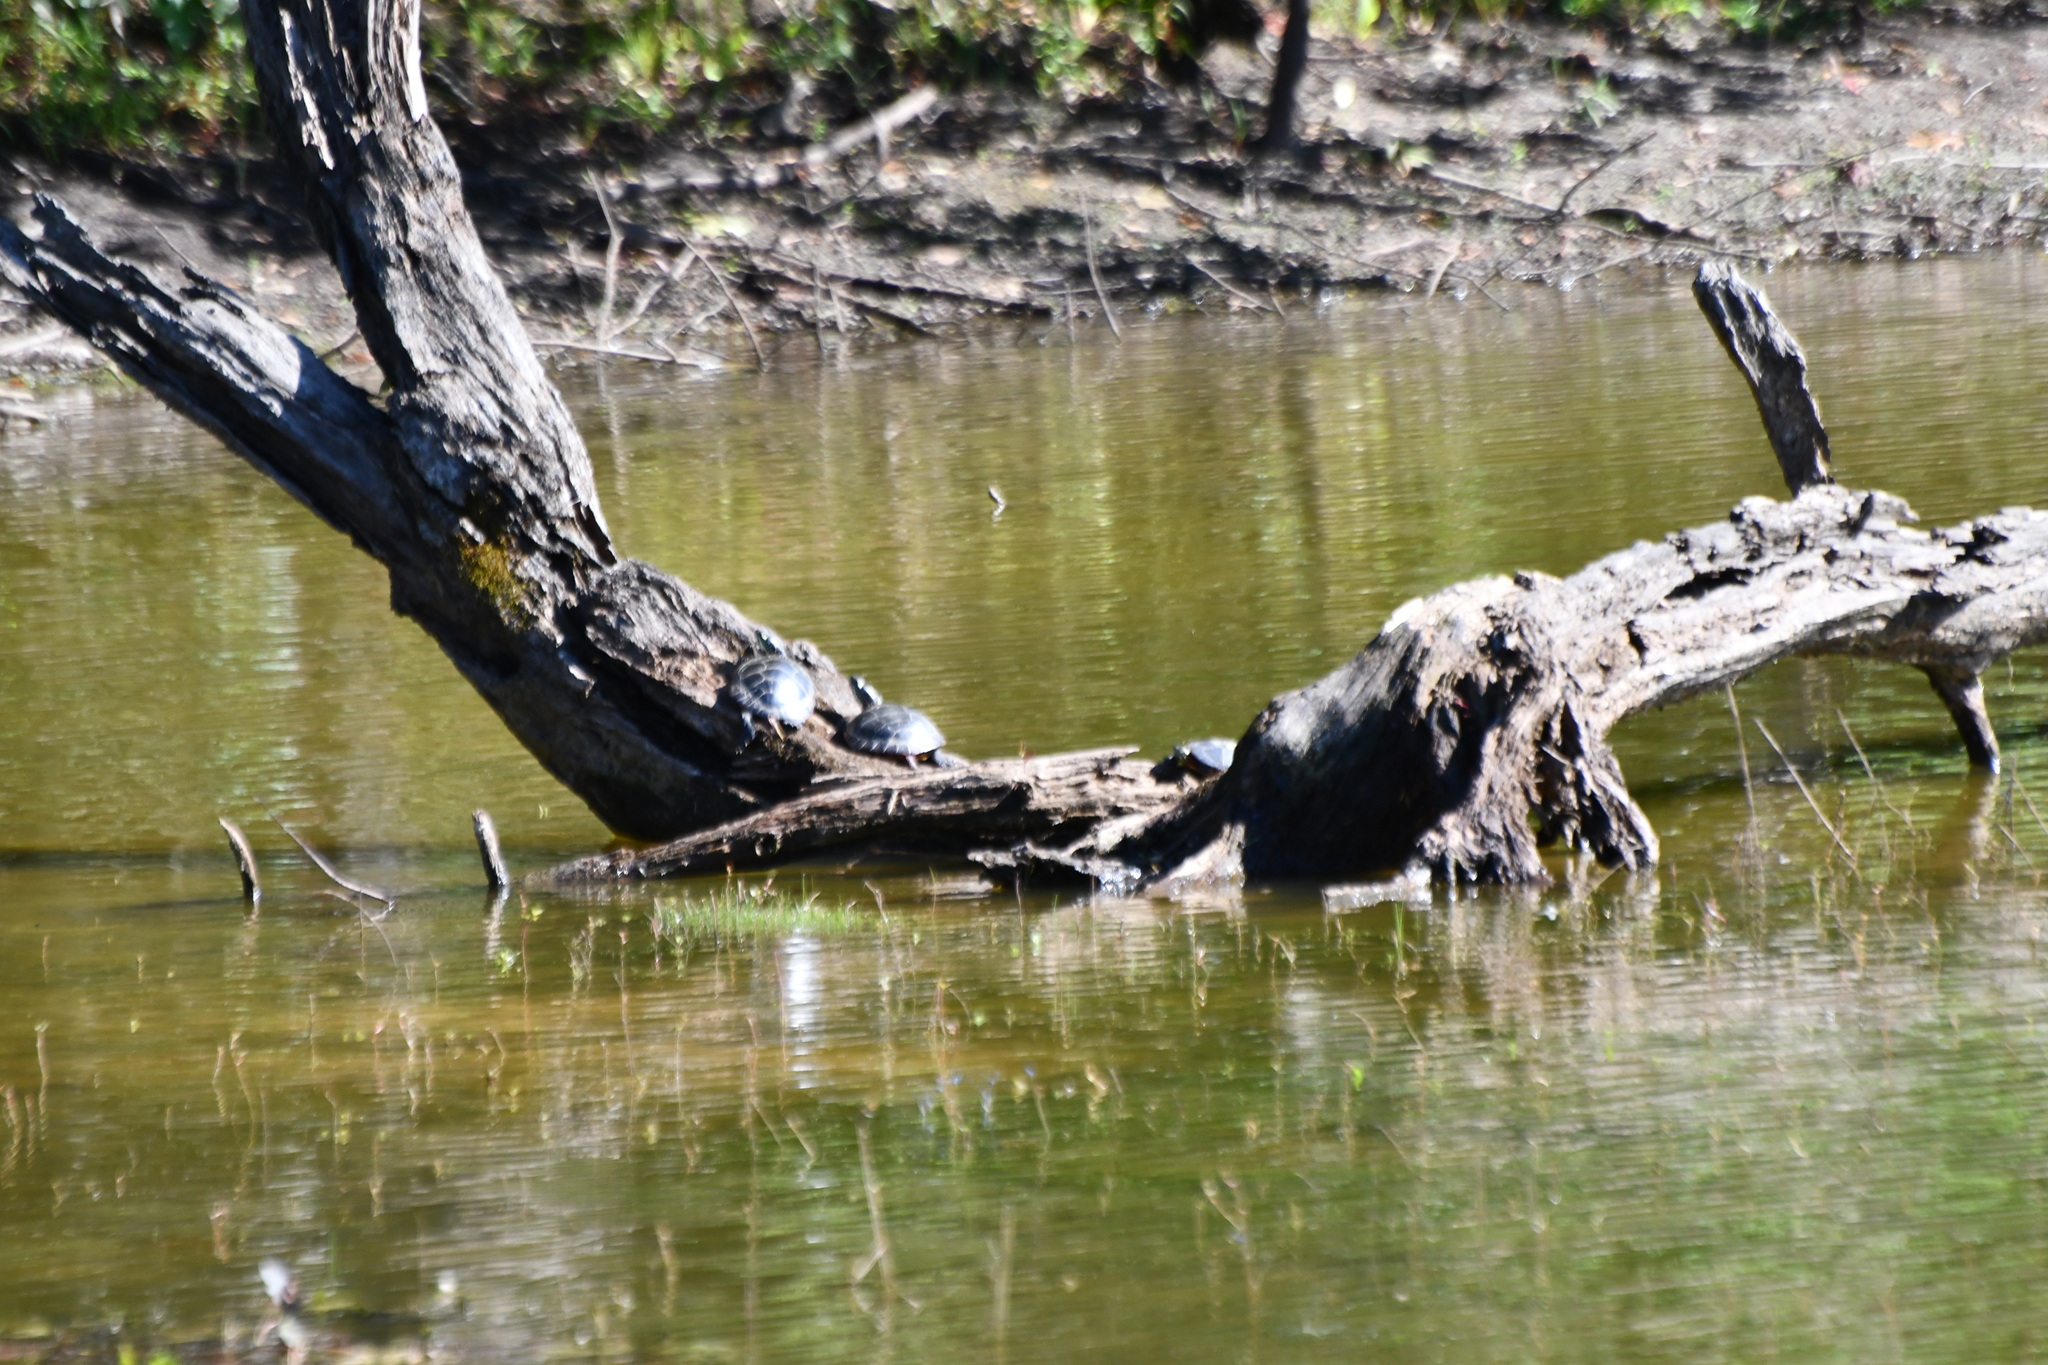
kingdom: Animalia
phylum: Chordata
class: Testudines
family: Emydidae
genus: Chrysemys
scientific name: Chrysemys picta
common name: Painted turtle
